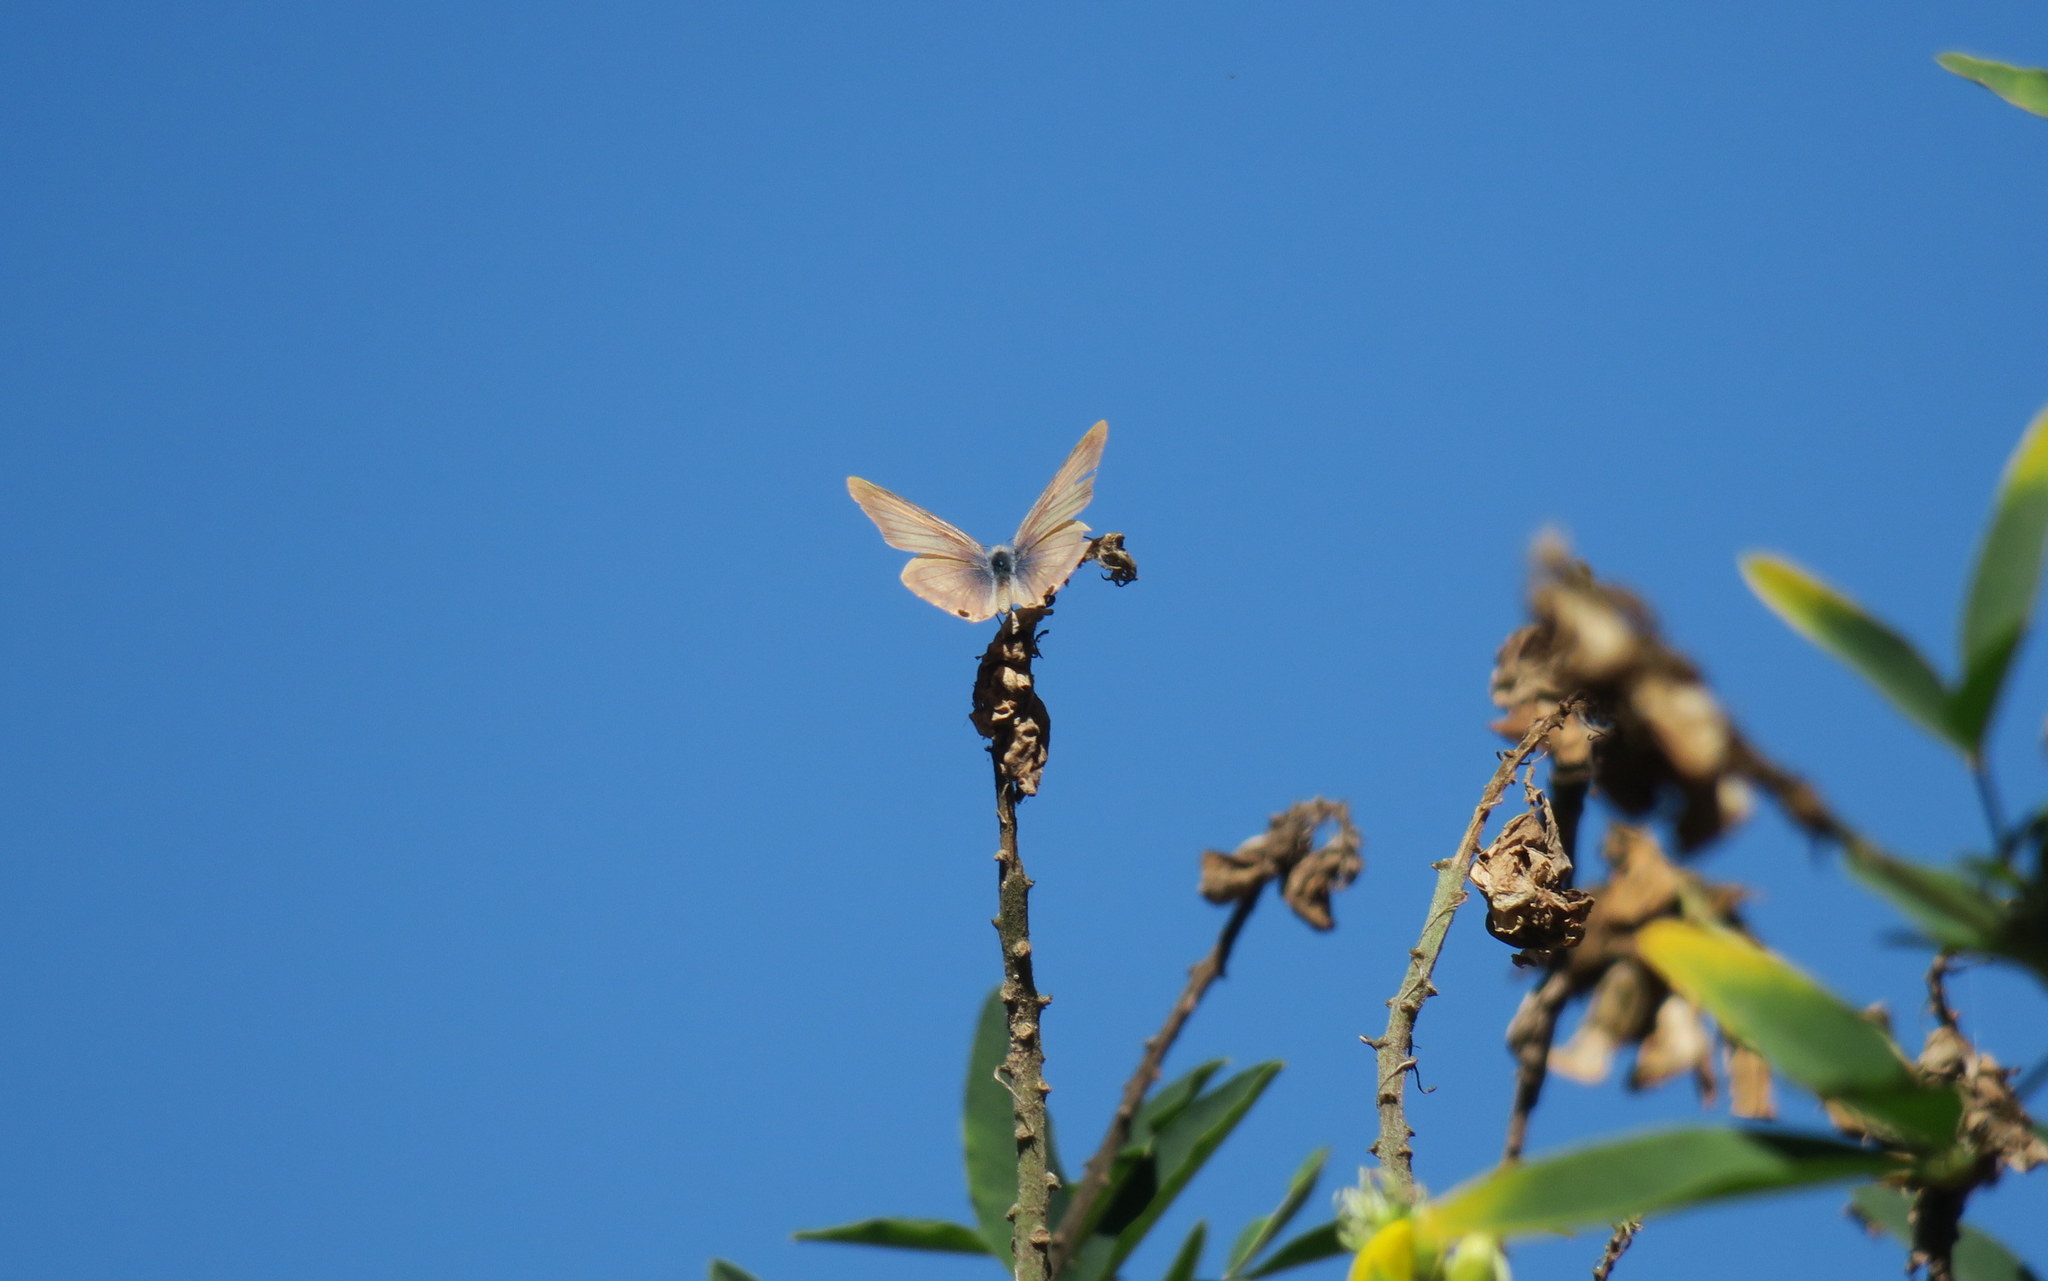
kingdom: Animalia
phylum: Arthropoda
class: Insecta
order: Lepidoptera
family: Lycaenidae
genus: Lampides
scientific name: Lampides boeticus
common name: Long-tailed blue
